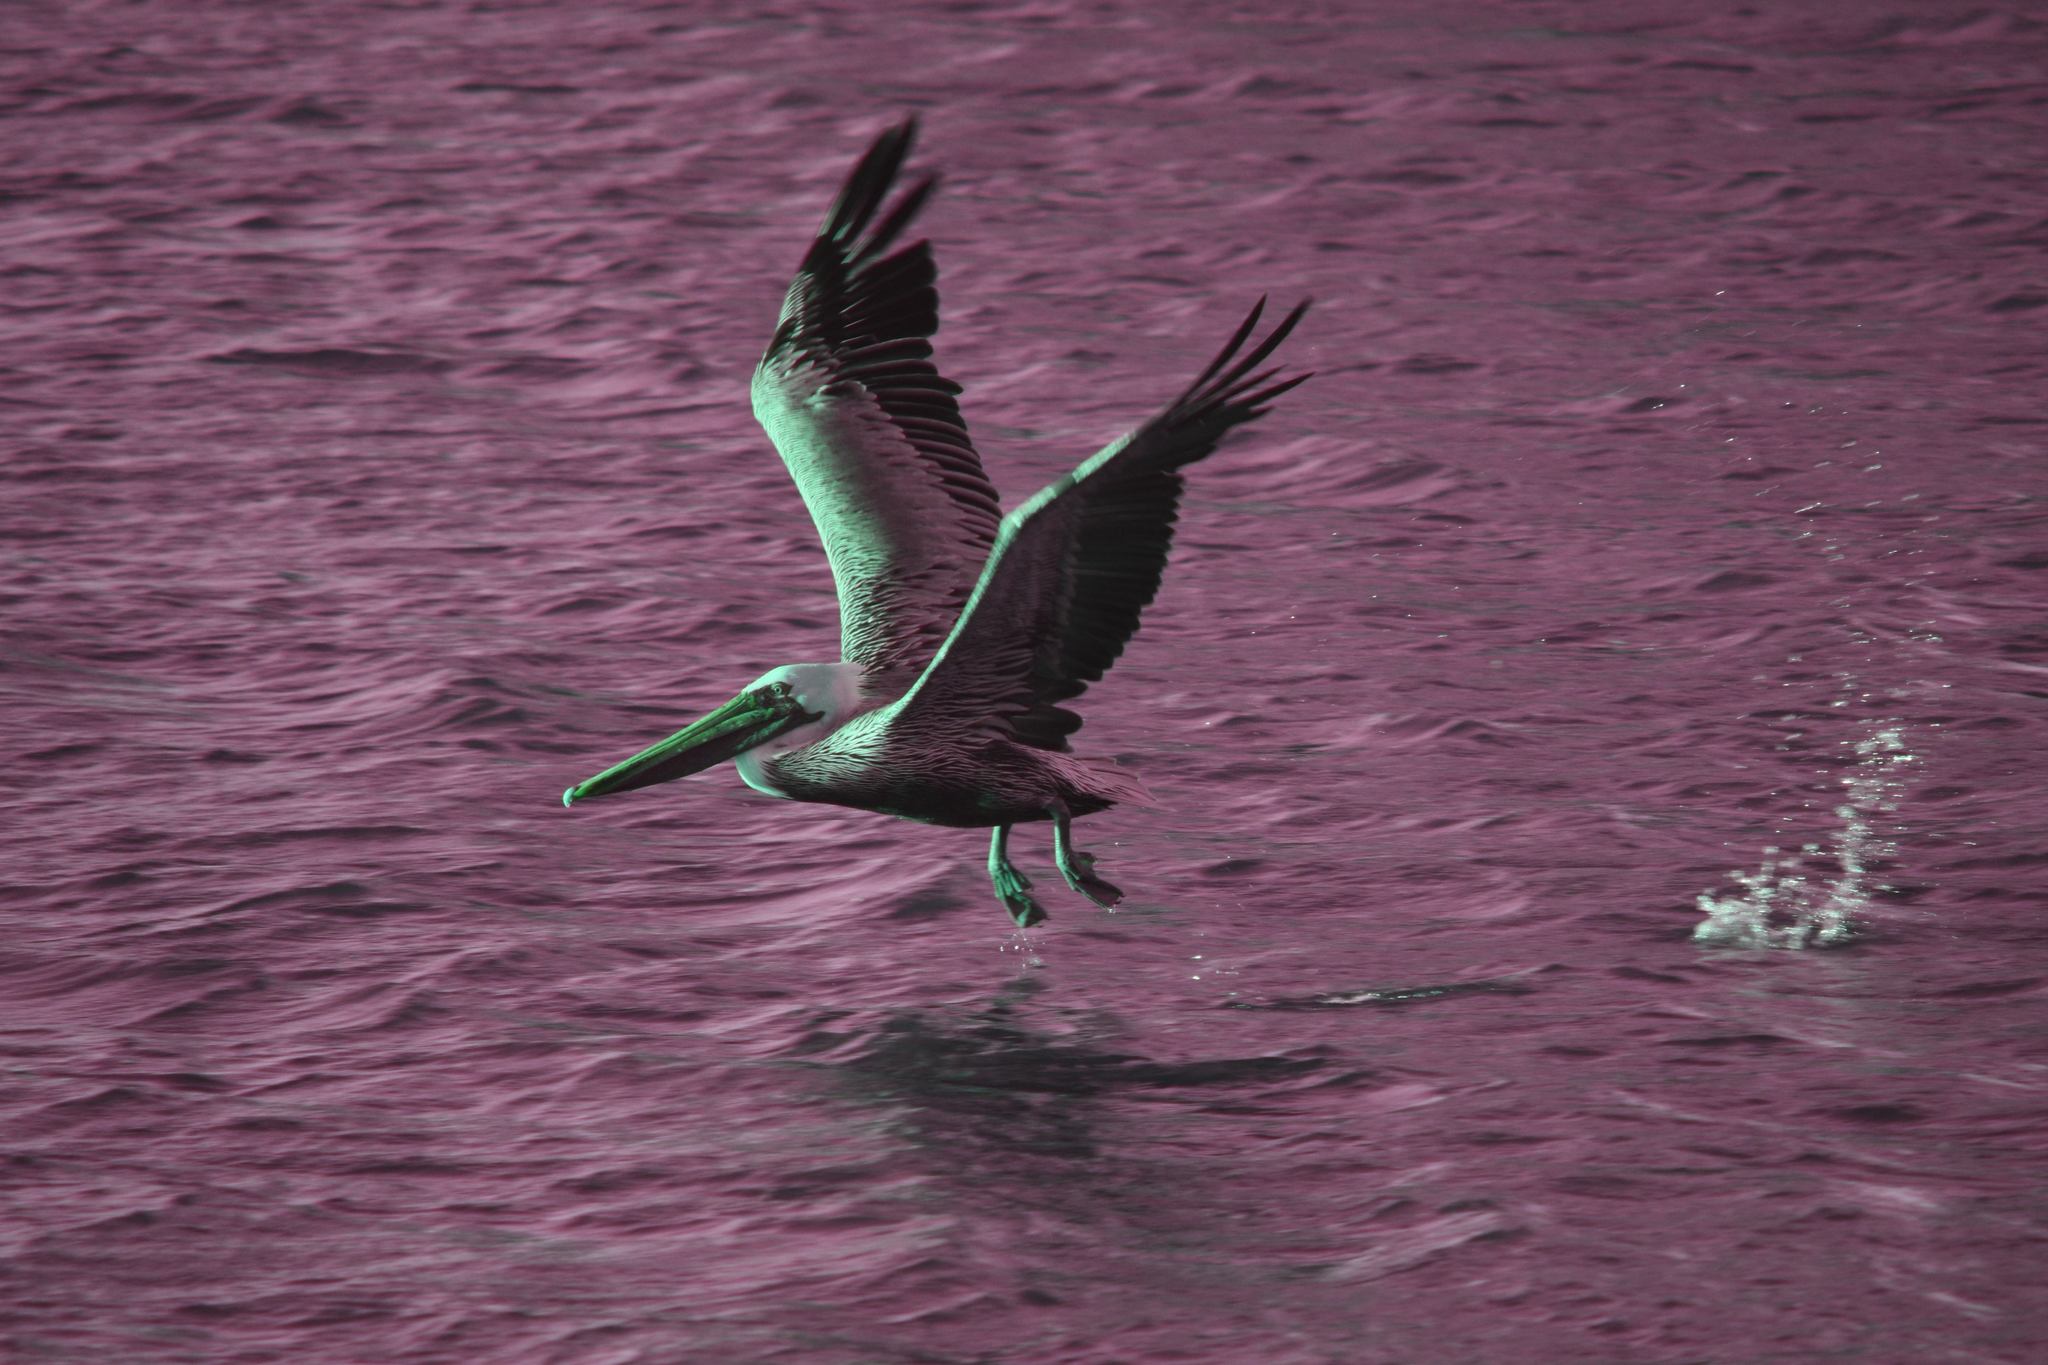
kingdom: Animalia
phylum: Chordata
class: Aves
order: Pelecaniformes
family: Pelecanidae
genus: Pelecanus
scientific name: Pelecanus occidentalis
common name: Brown pelican
